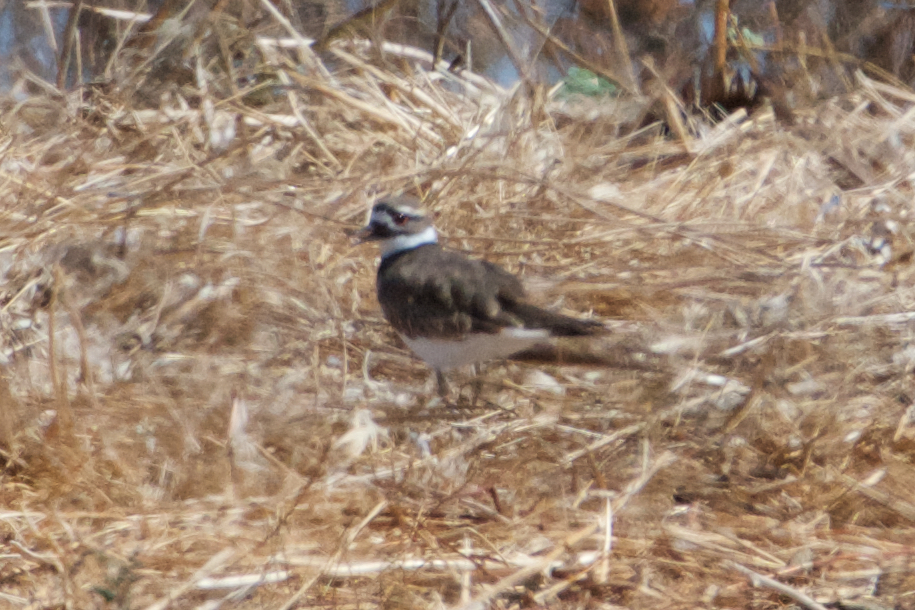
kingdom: Animalia
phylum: Chordata
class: Aves
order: Charadriiformes
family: Charadriidae
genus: Charadrius
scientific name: Charadrius vociferus
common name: Killdeer
